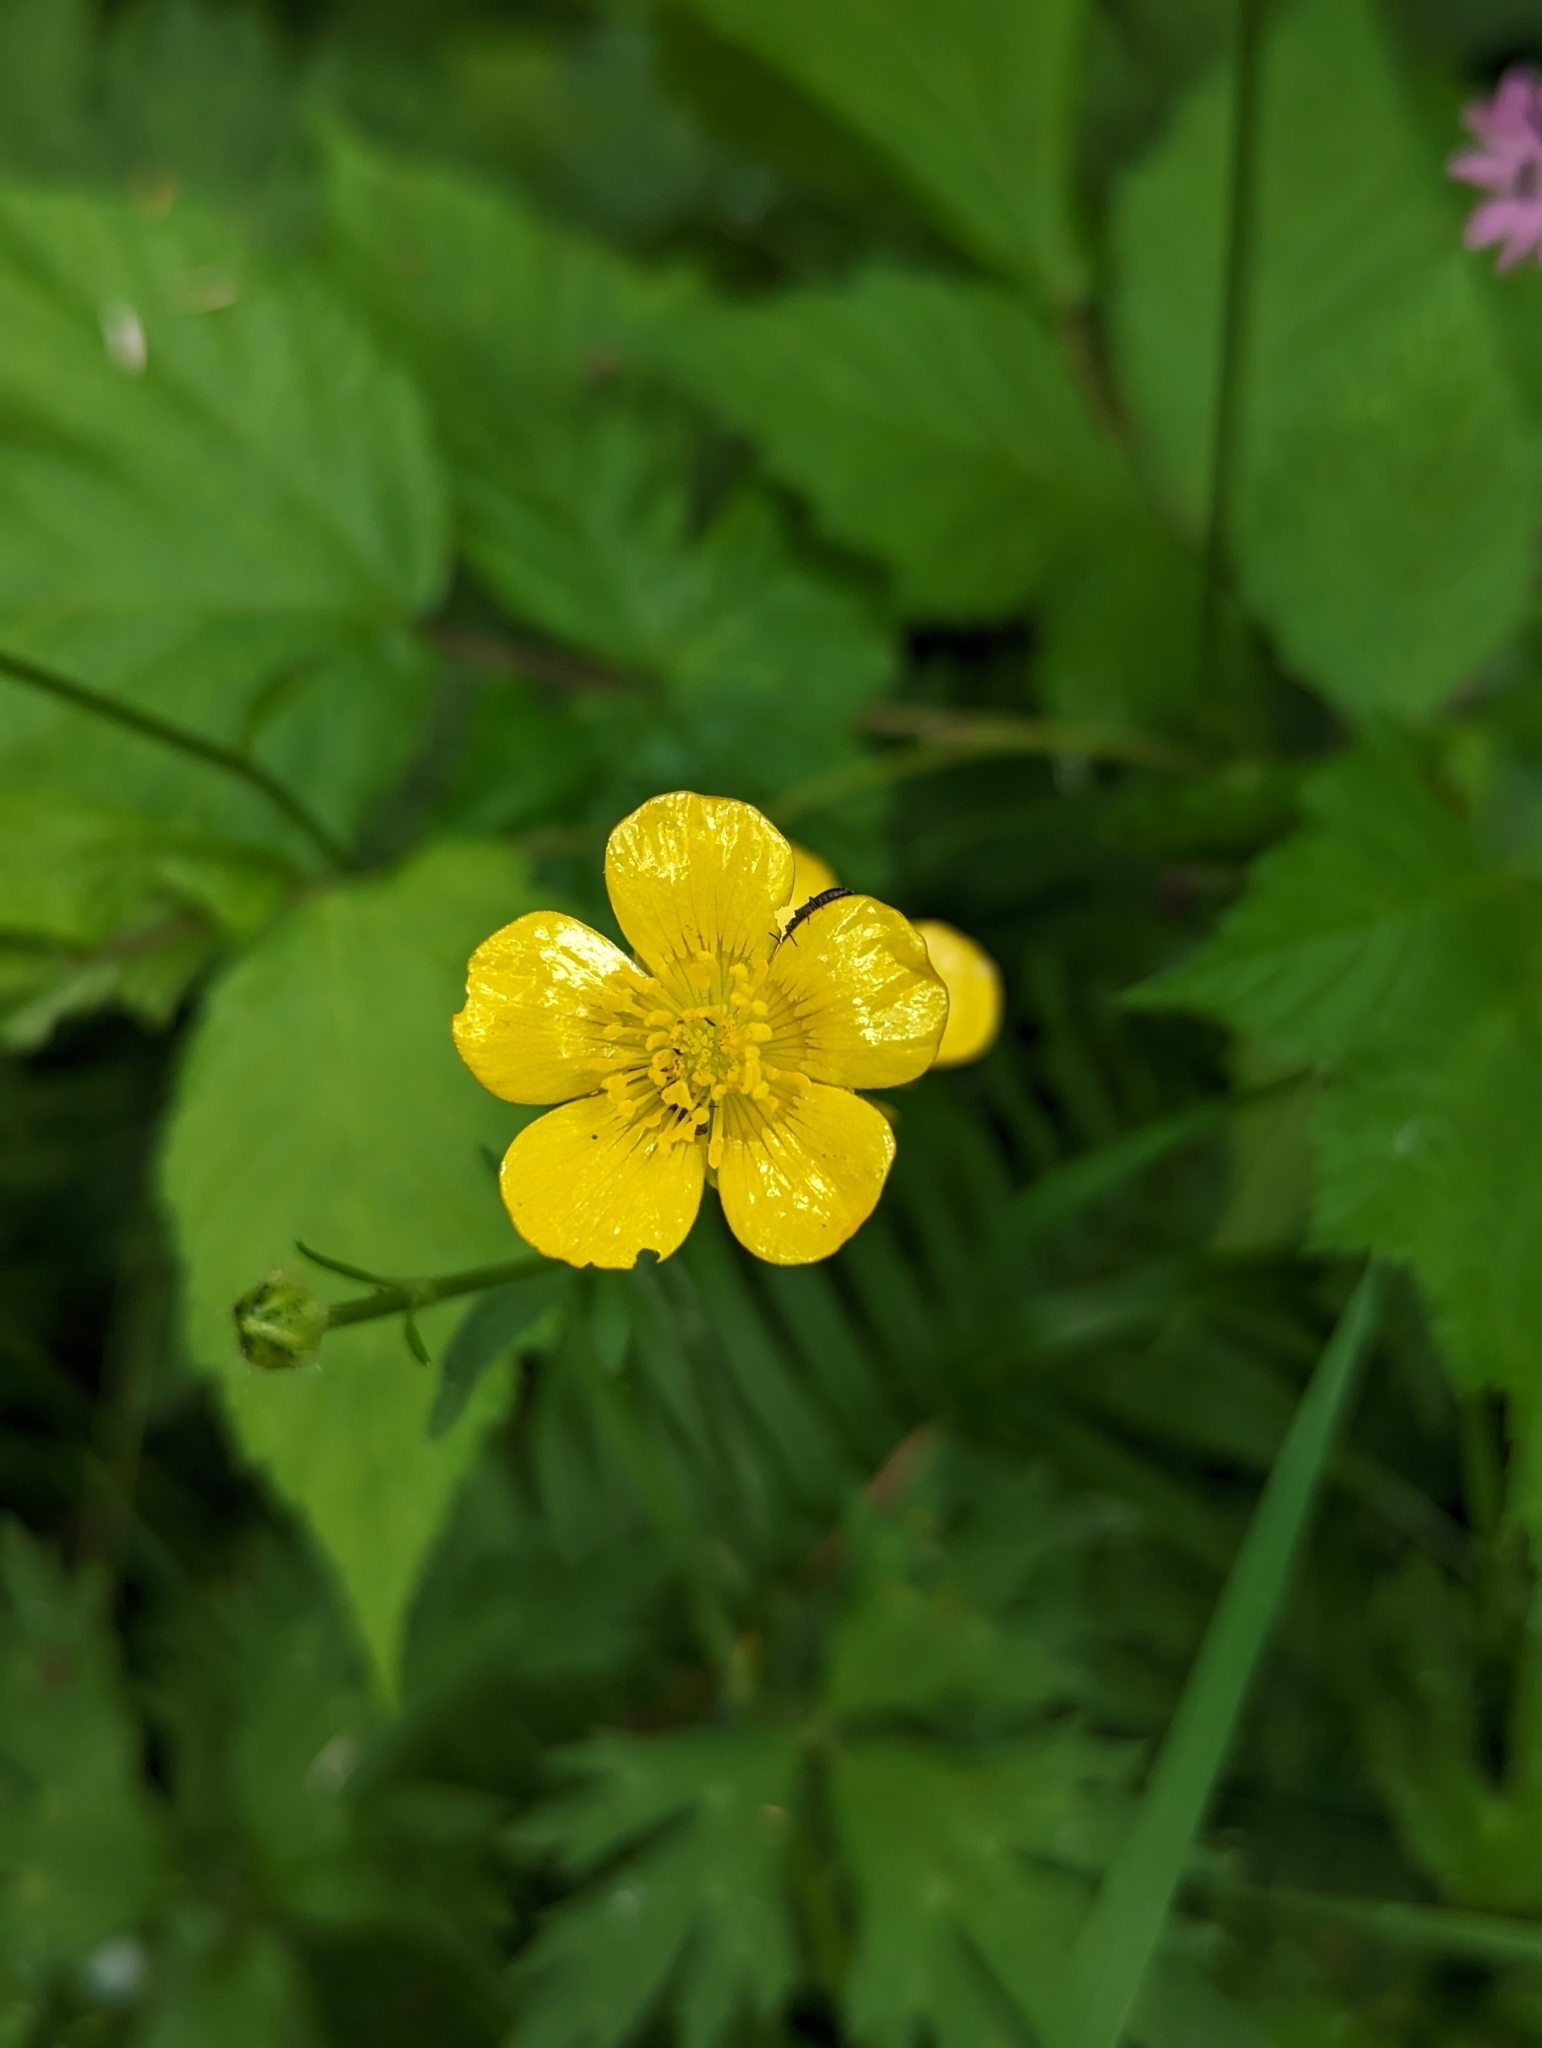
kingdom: Plantae
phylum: Tracheophyta
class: Magnoliopsida
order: Ranunculales
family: Ranunculaceae
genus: Ranunculus
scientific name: Ranunculus repens
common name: Creeping buttercup
